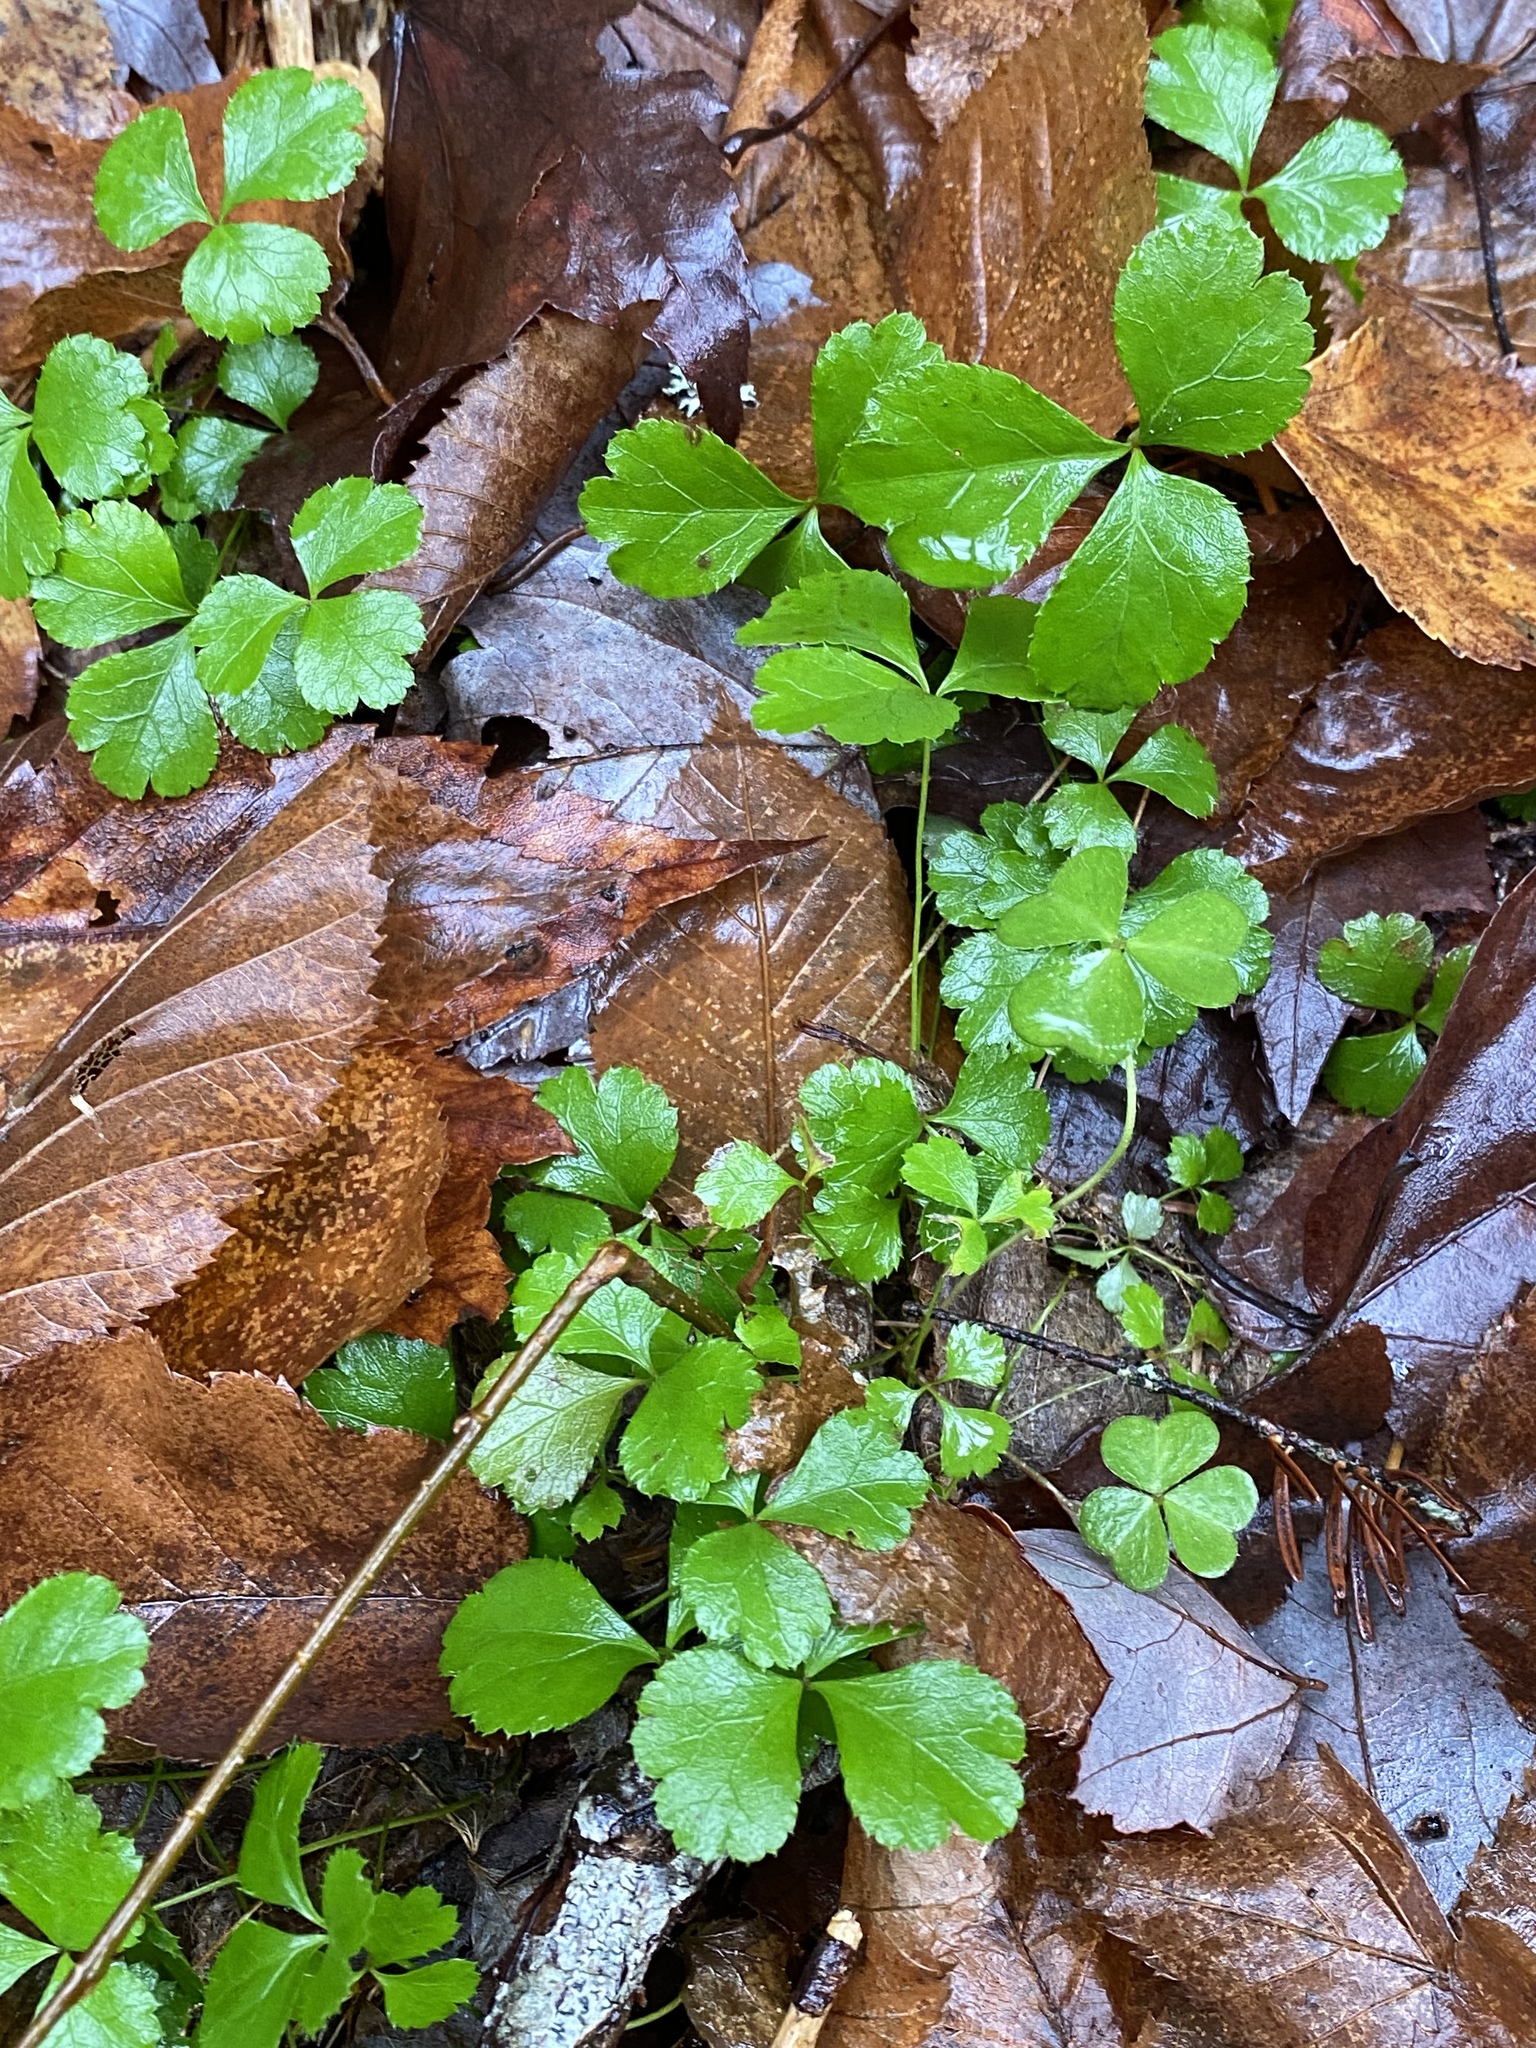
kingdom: Plantae
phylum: Tracheophyta
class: Magnoliopsida
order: Ranunculales
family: Ranunculaceae
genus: Coptis
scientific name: Coptis trifolia
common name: Canker-root
